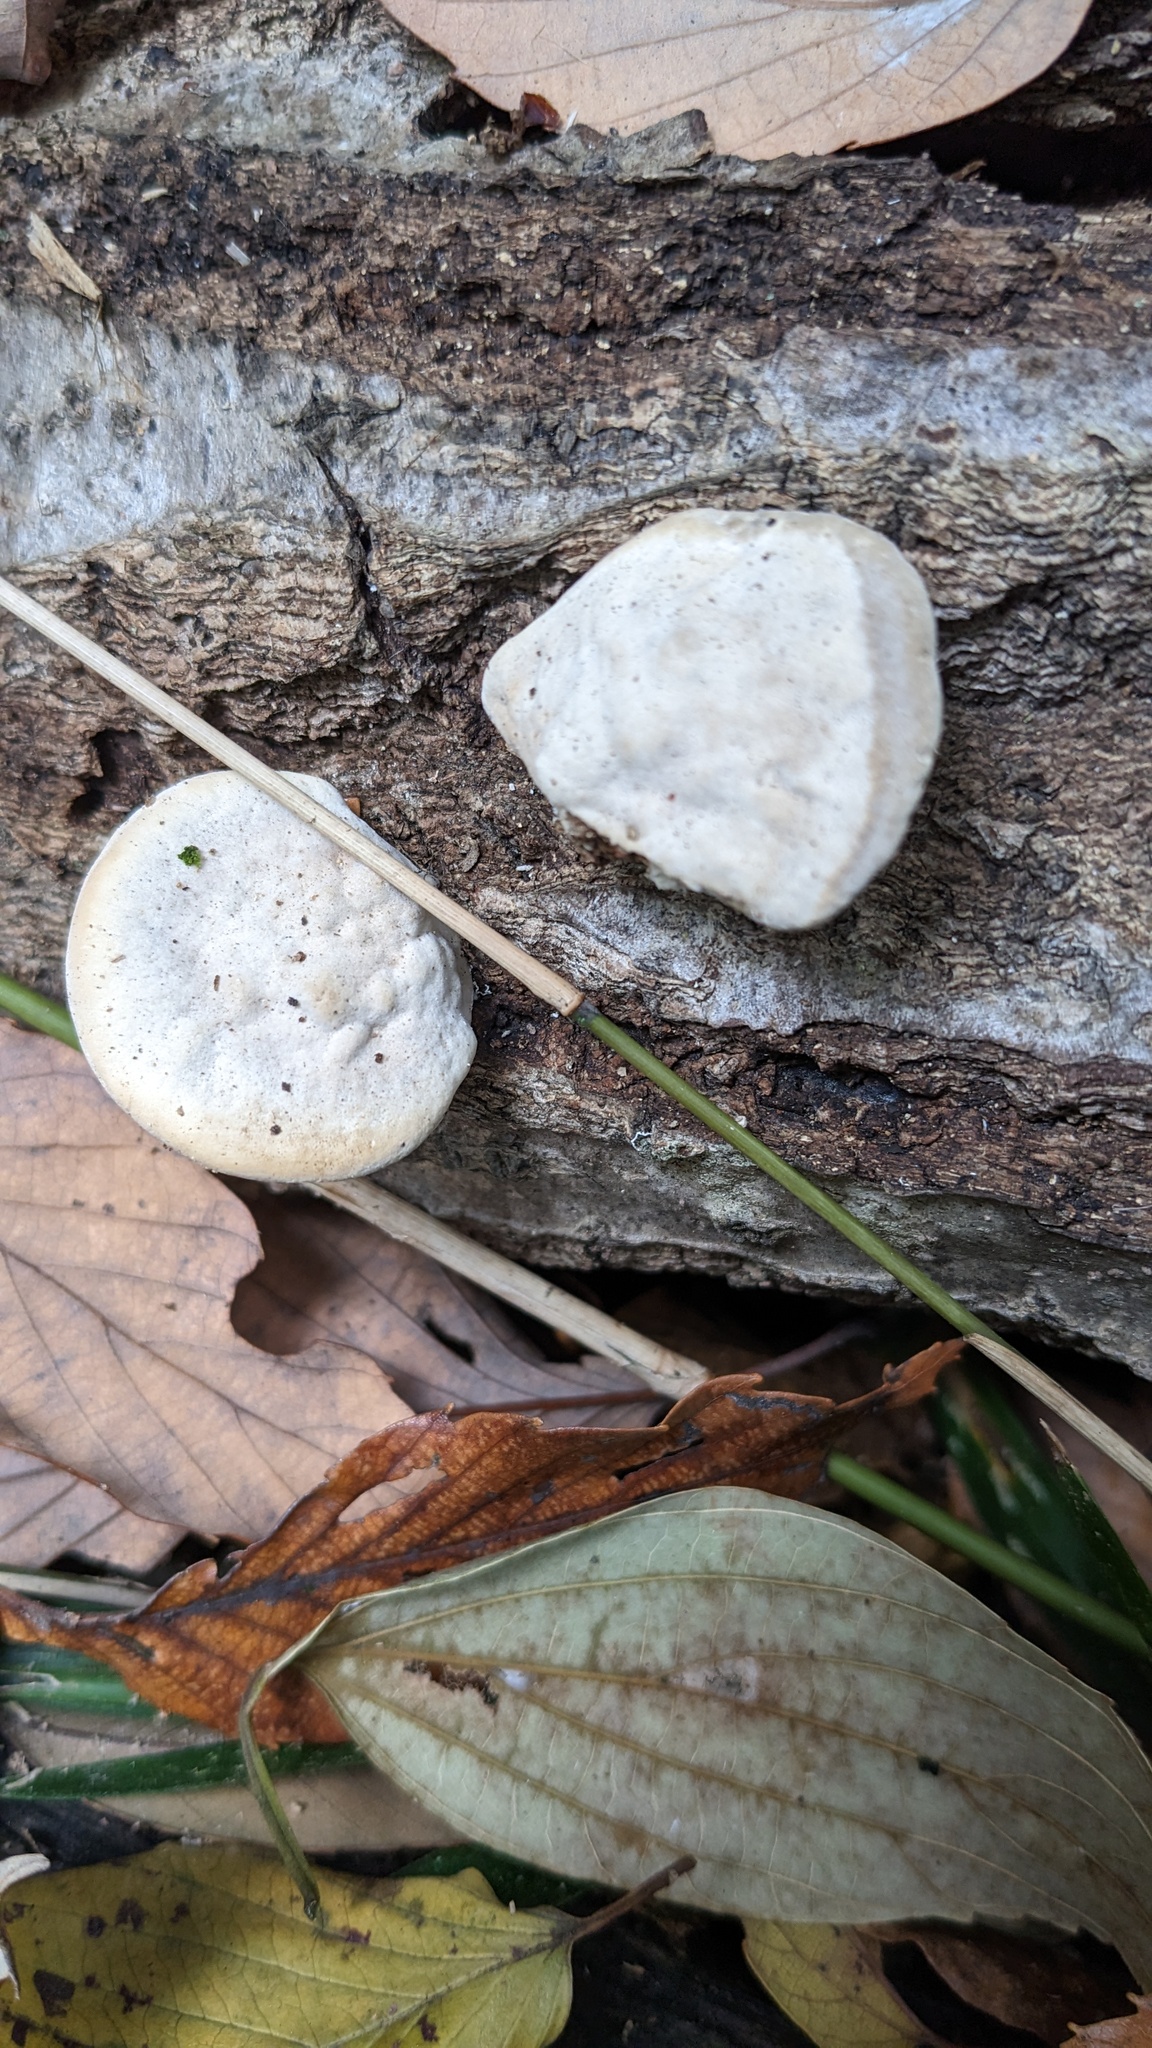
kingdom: Fungi
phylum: Basidiomycota
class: Agaricomycetes
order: Polyporales
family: Polyporaceae
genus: Trametes
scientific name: Trametes orientalis
